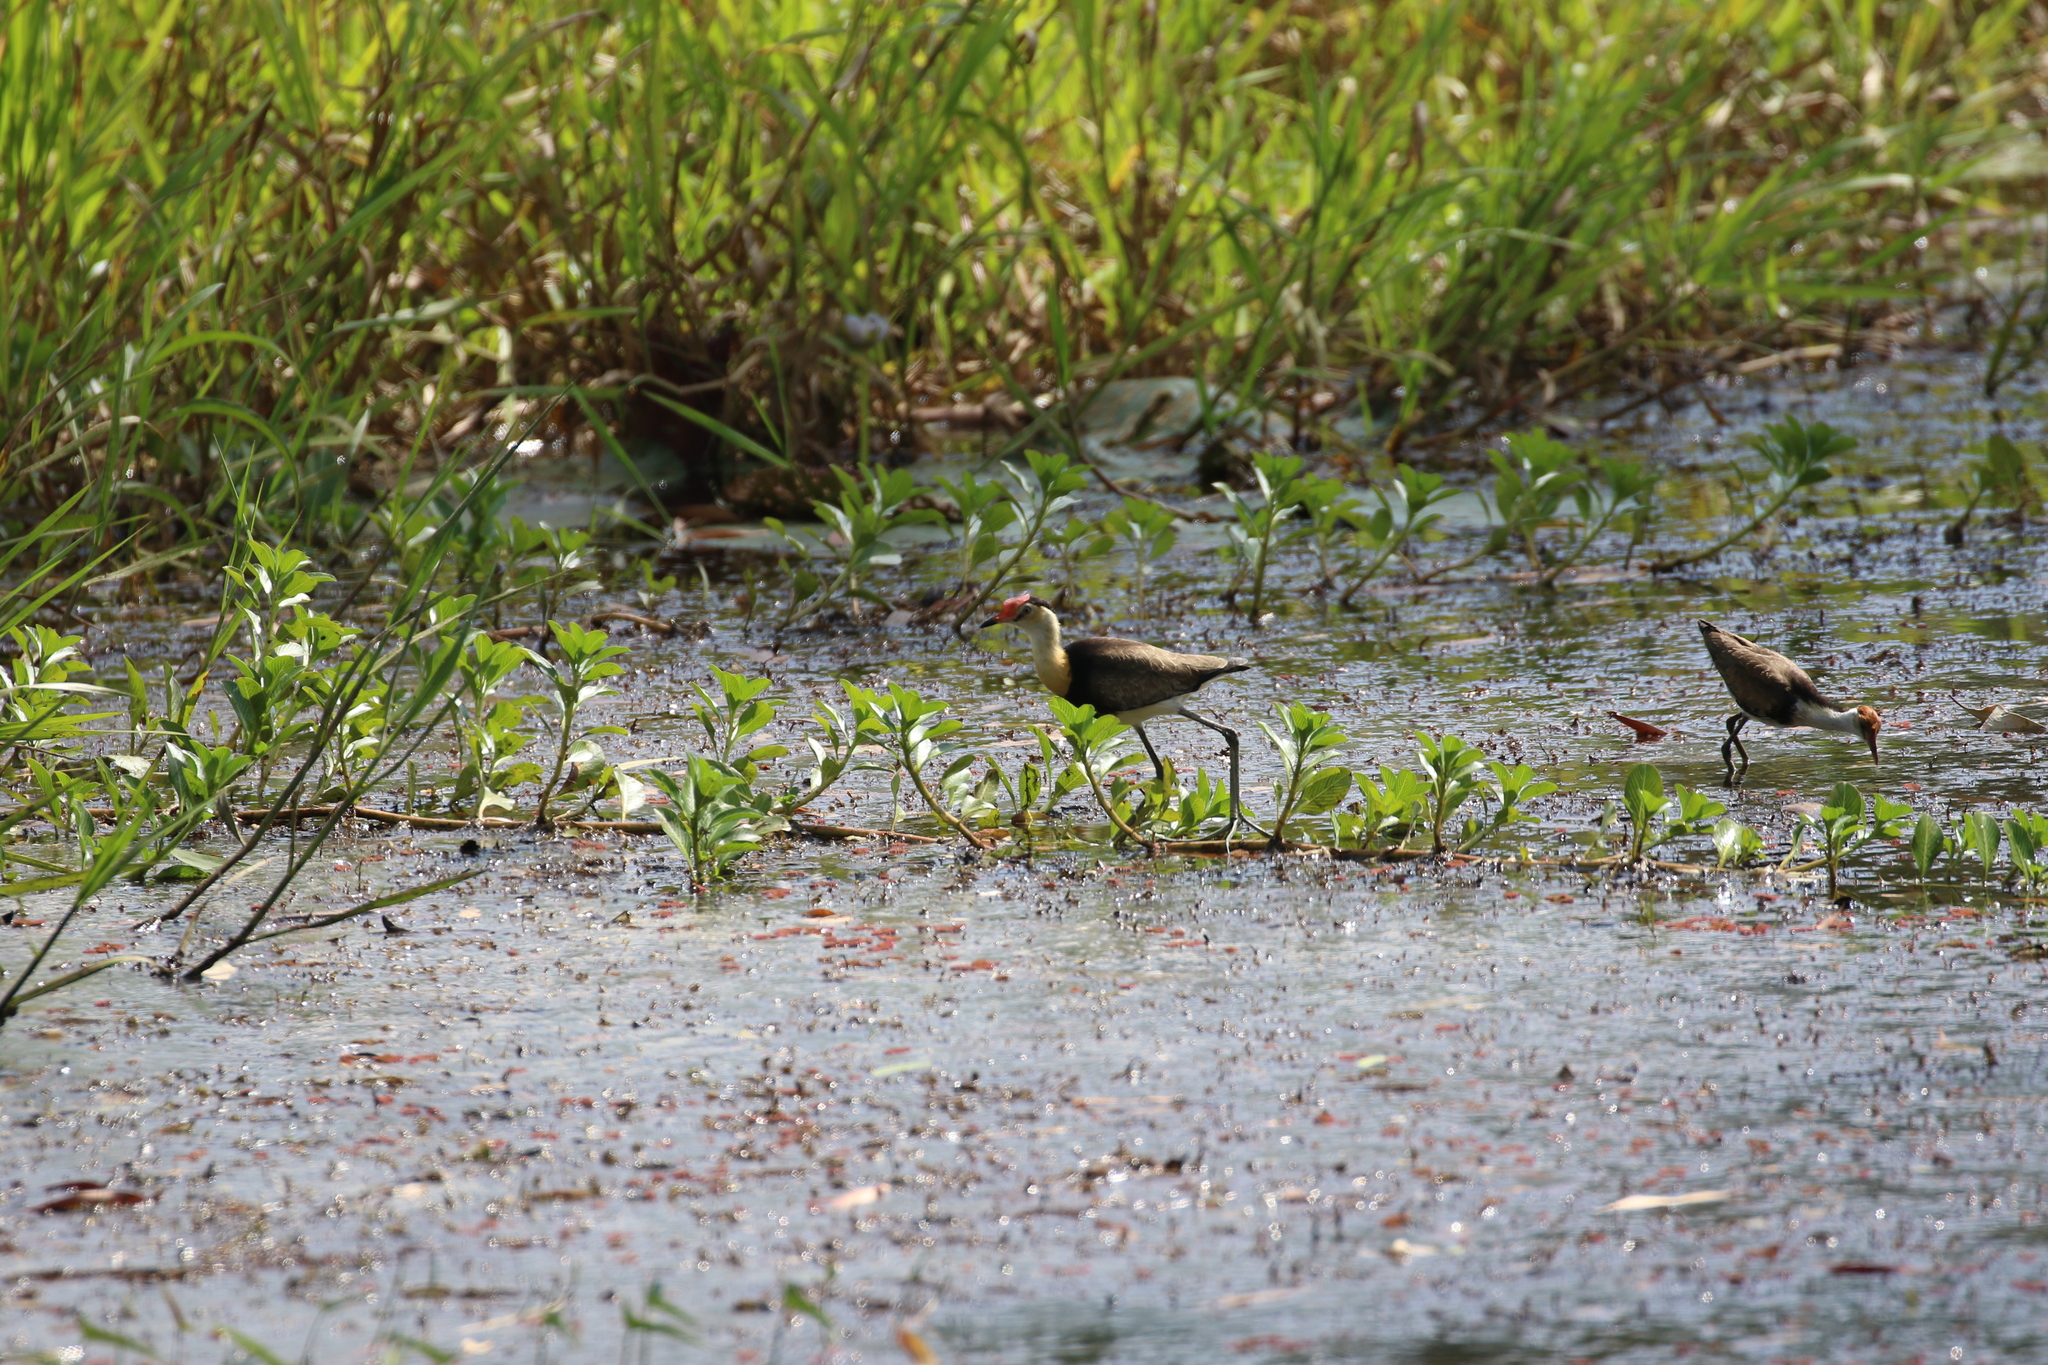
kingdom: Animalia
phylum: Chordata
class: Aves
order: Charadriiformes
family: Jacanidae
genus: Irediparra
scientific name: Irediparra gallinacea
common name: Comb-crested jacana
